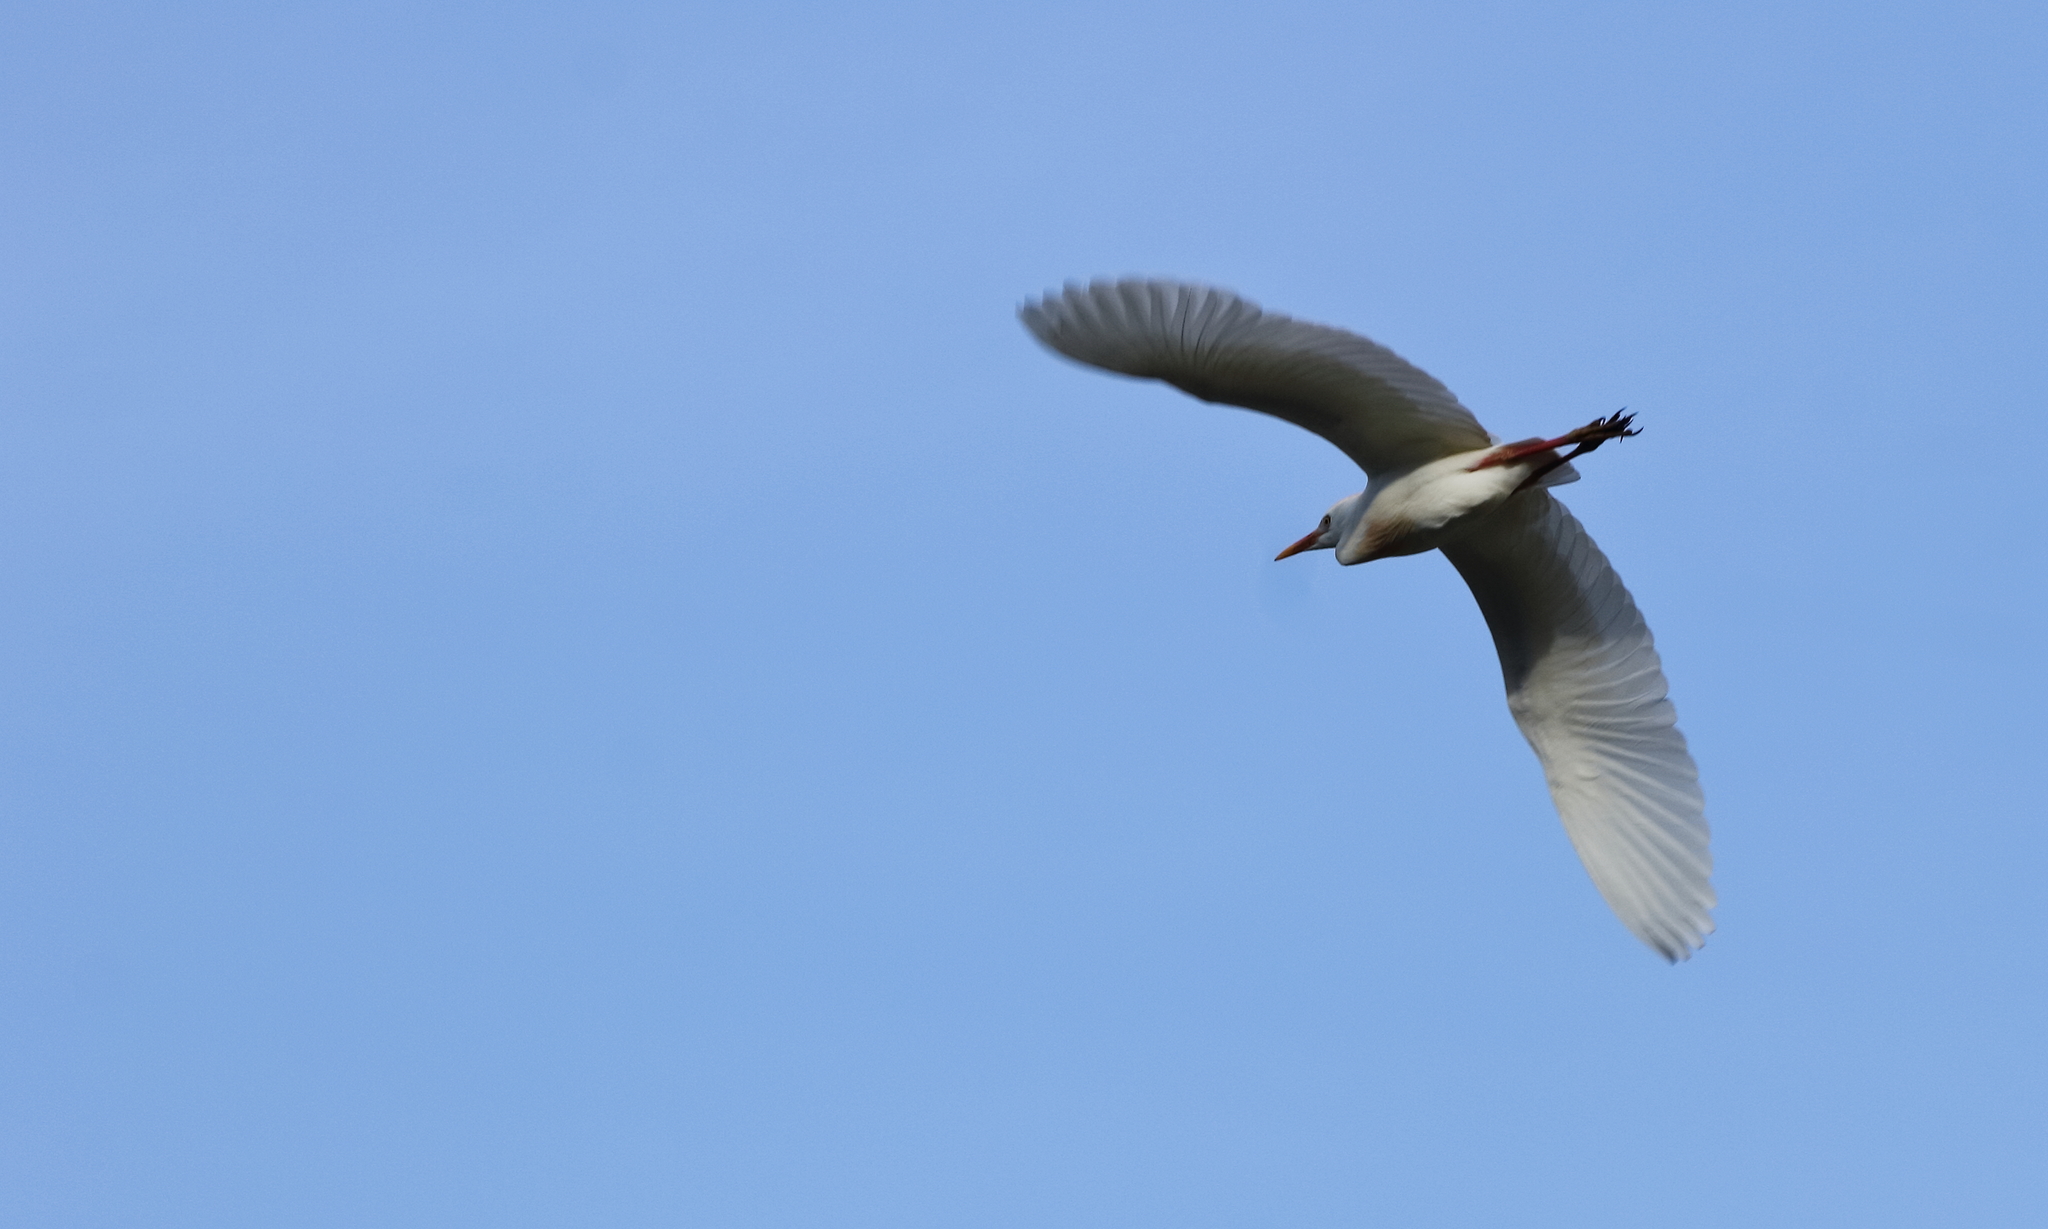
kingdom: Animalia
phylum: Chordata
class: Aves
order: Pelecaniformes
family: Ardeidae
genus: Bubulcus
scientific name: Bubulcus ibis
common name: Cattle egret
